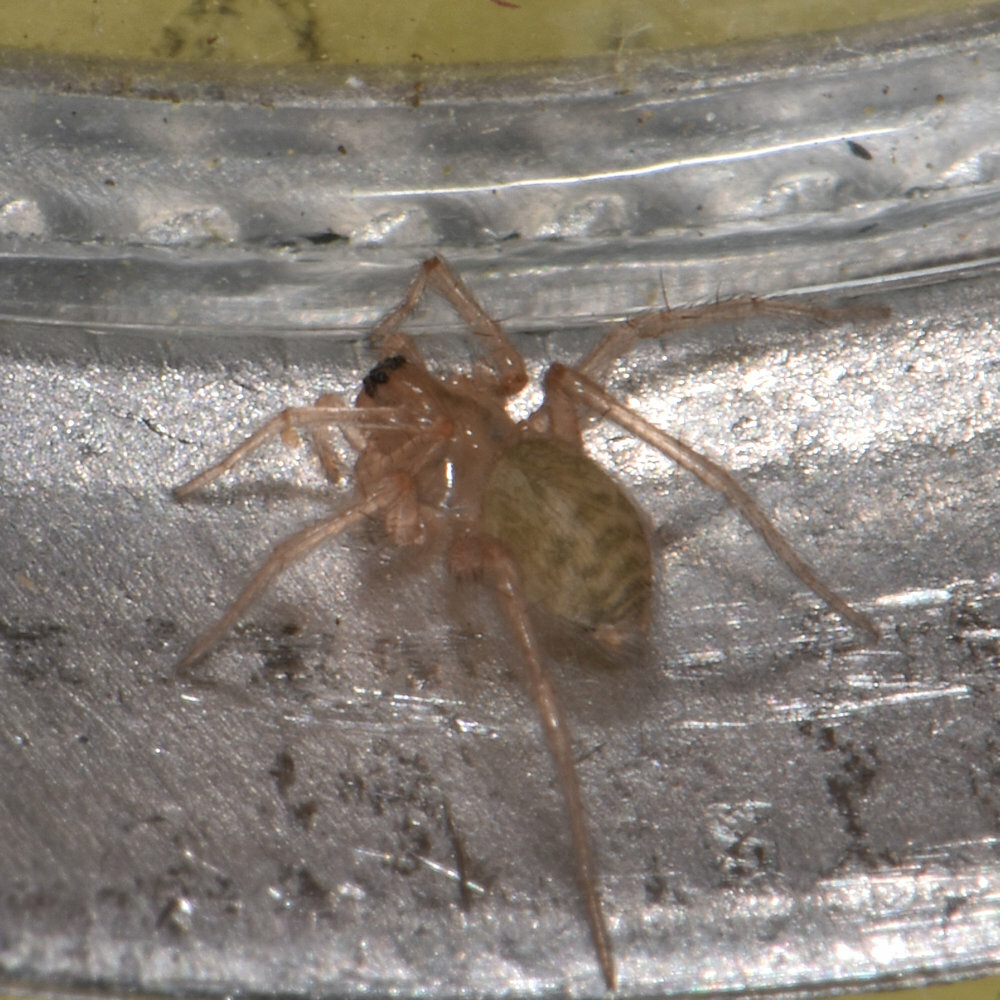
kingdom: Animalia
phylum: Arthropoda
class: Arachnida
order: Araneae
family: Agelenidae
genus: Tegenaria
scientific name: Tegenaria domestica
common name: Barn funnel weaver
